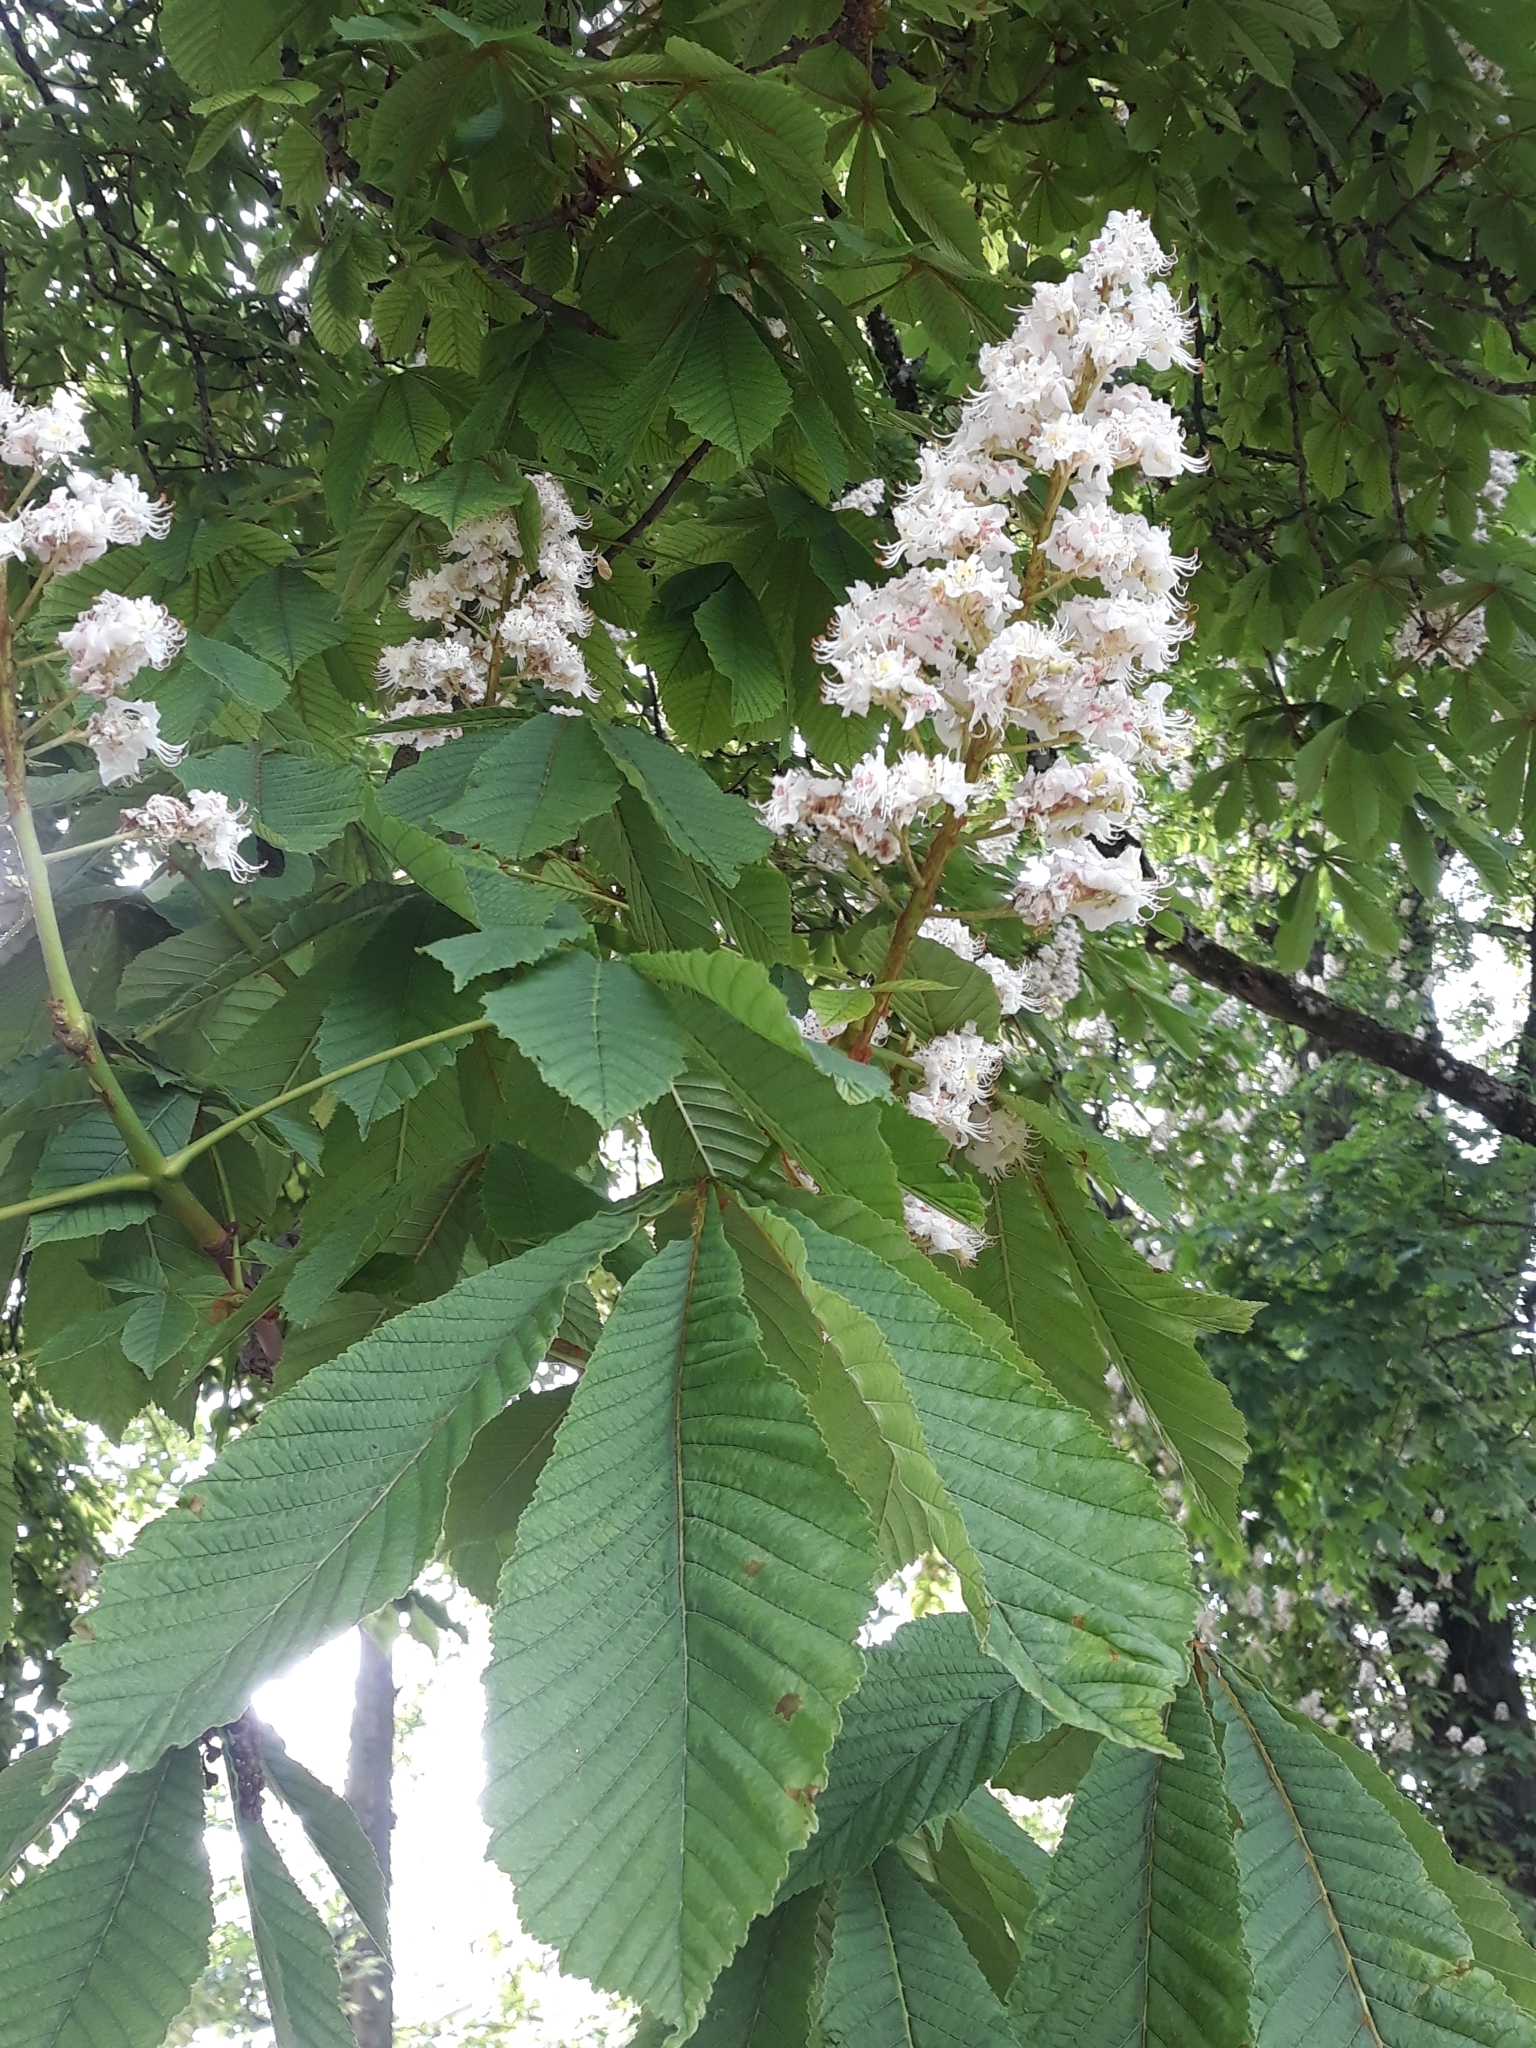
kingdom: Plantae
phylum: Tracheophyta
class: Magnoliopsida
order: Sapindales
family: Sapindaceae
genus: Aesculus
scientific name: Aesculus hippocastanum
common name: Horse-chestnut
